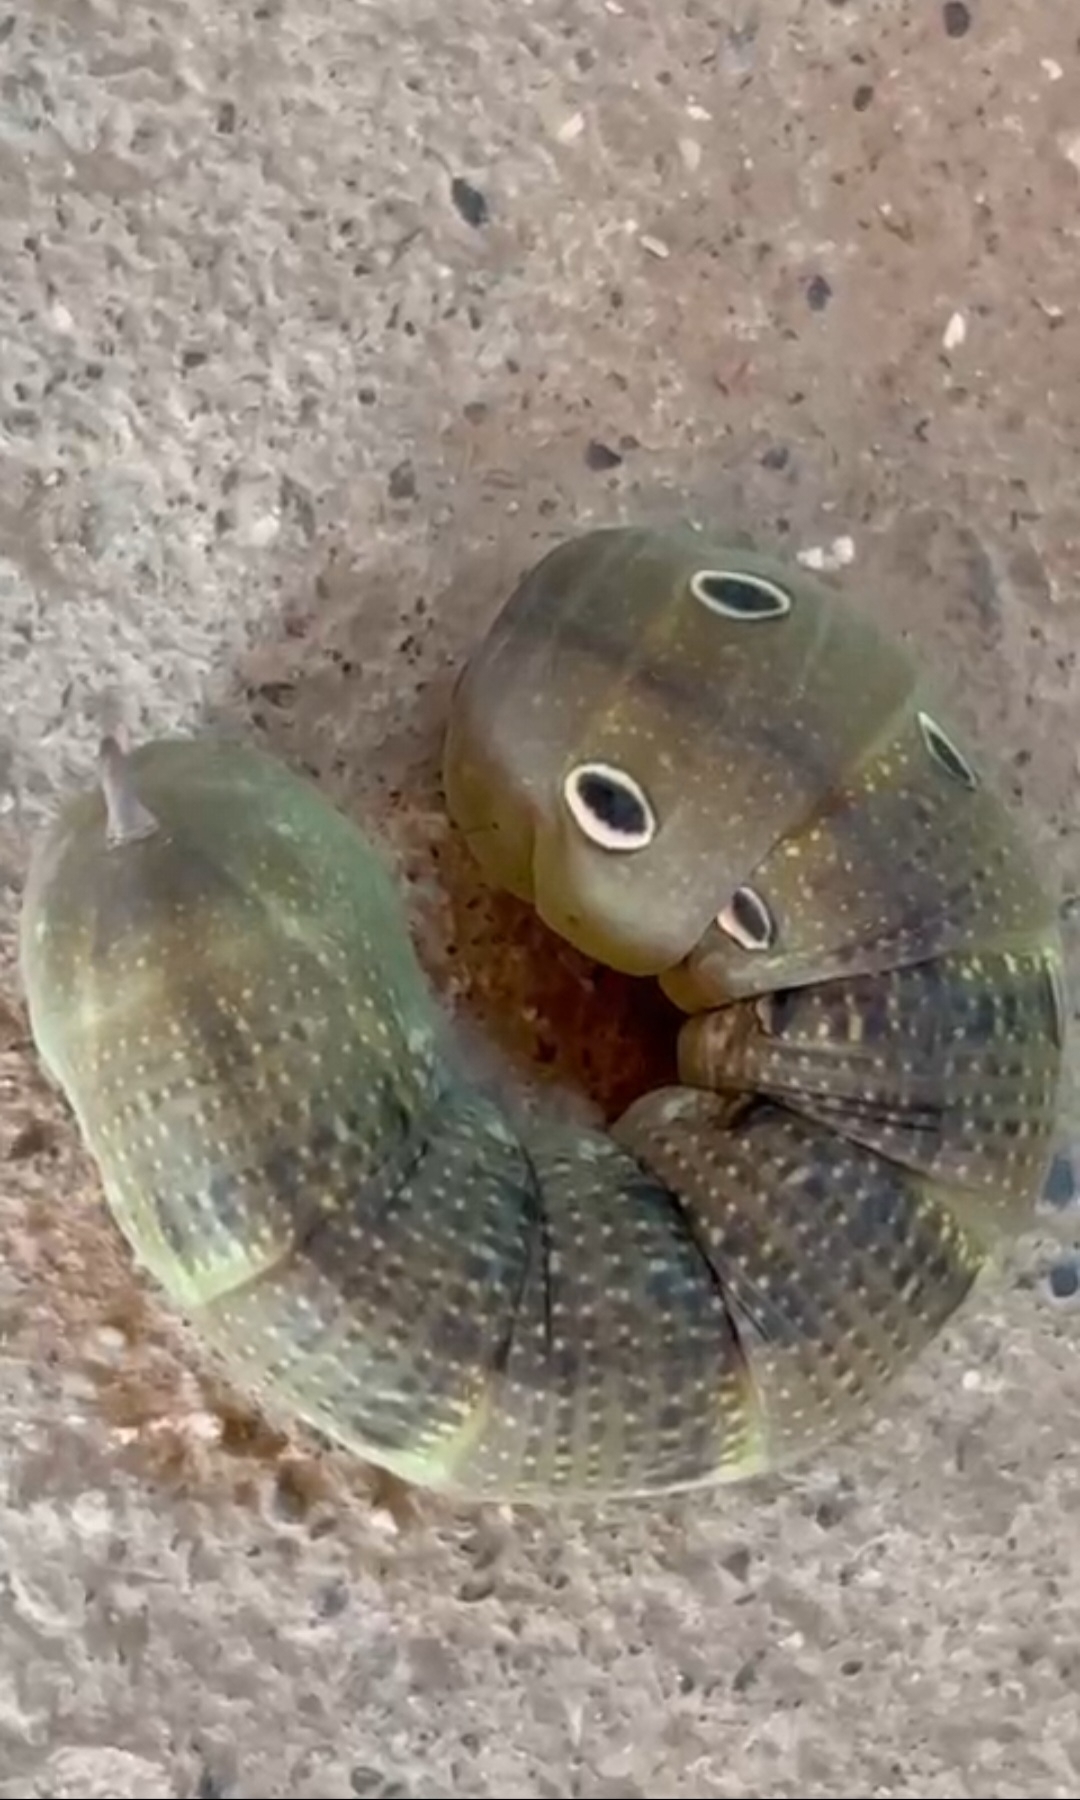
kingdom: Animalia
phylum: Arthropoda
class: Insecta
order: Lepidoptera
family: Sphingidae
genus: Theretra
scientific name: Theretra alecto
